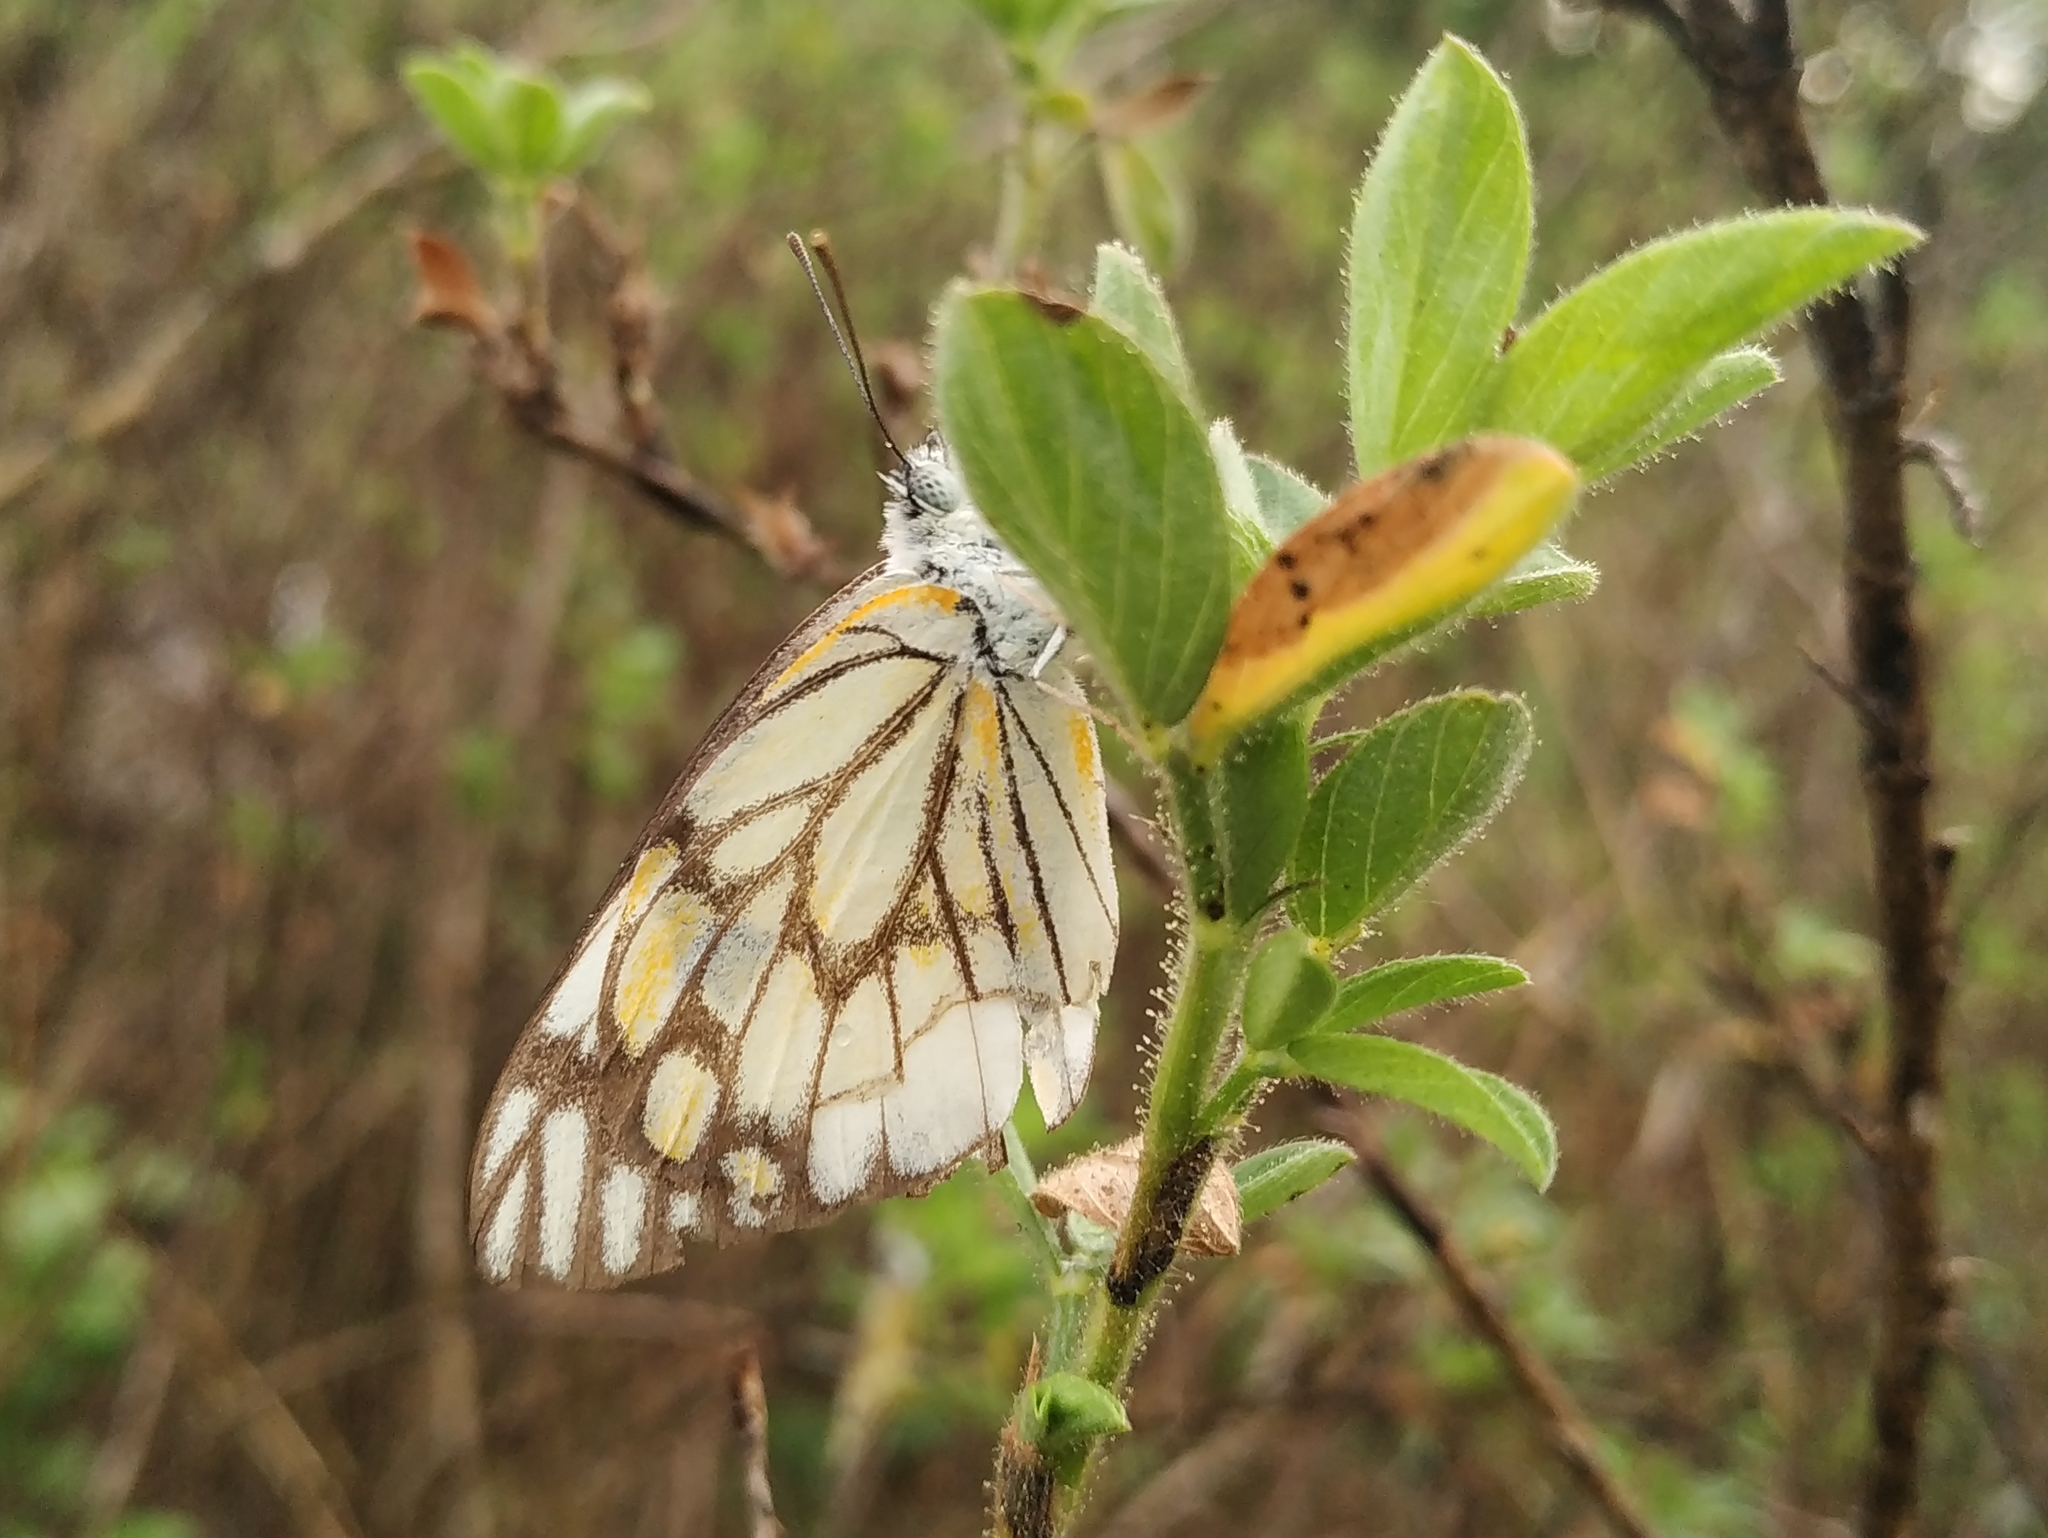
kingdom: Animalia
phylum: Arthropoda
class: Insecta
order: Lepidoptera
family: Pieridae
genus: Belenois
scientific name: Belenois aurota
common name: Brown-veined white
